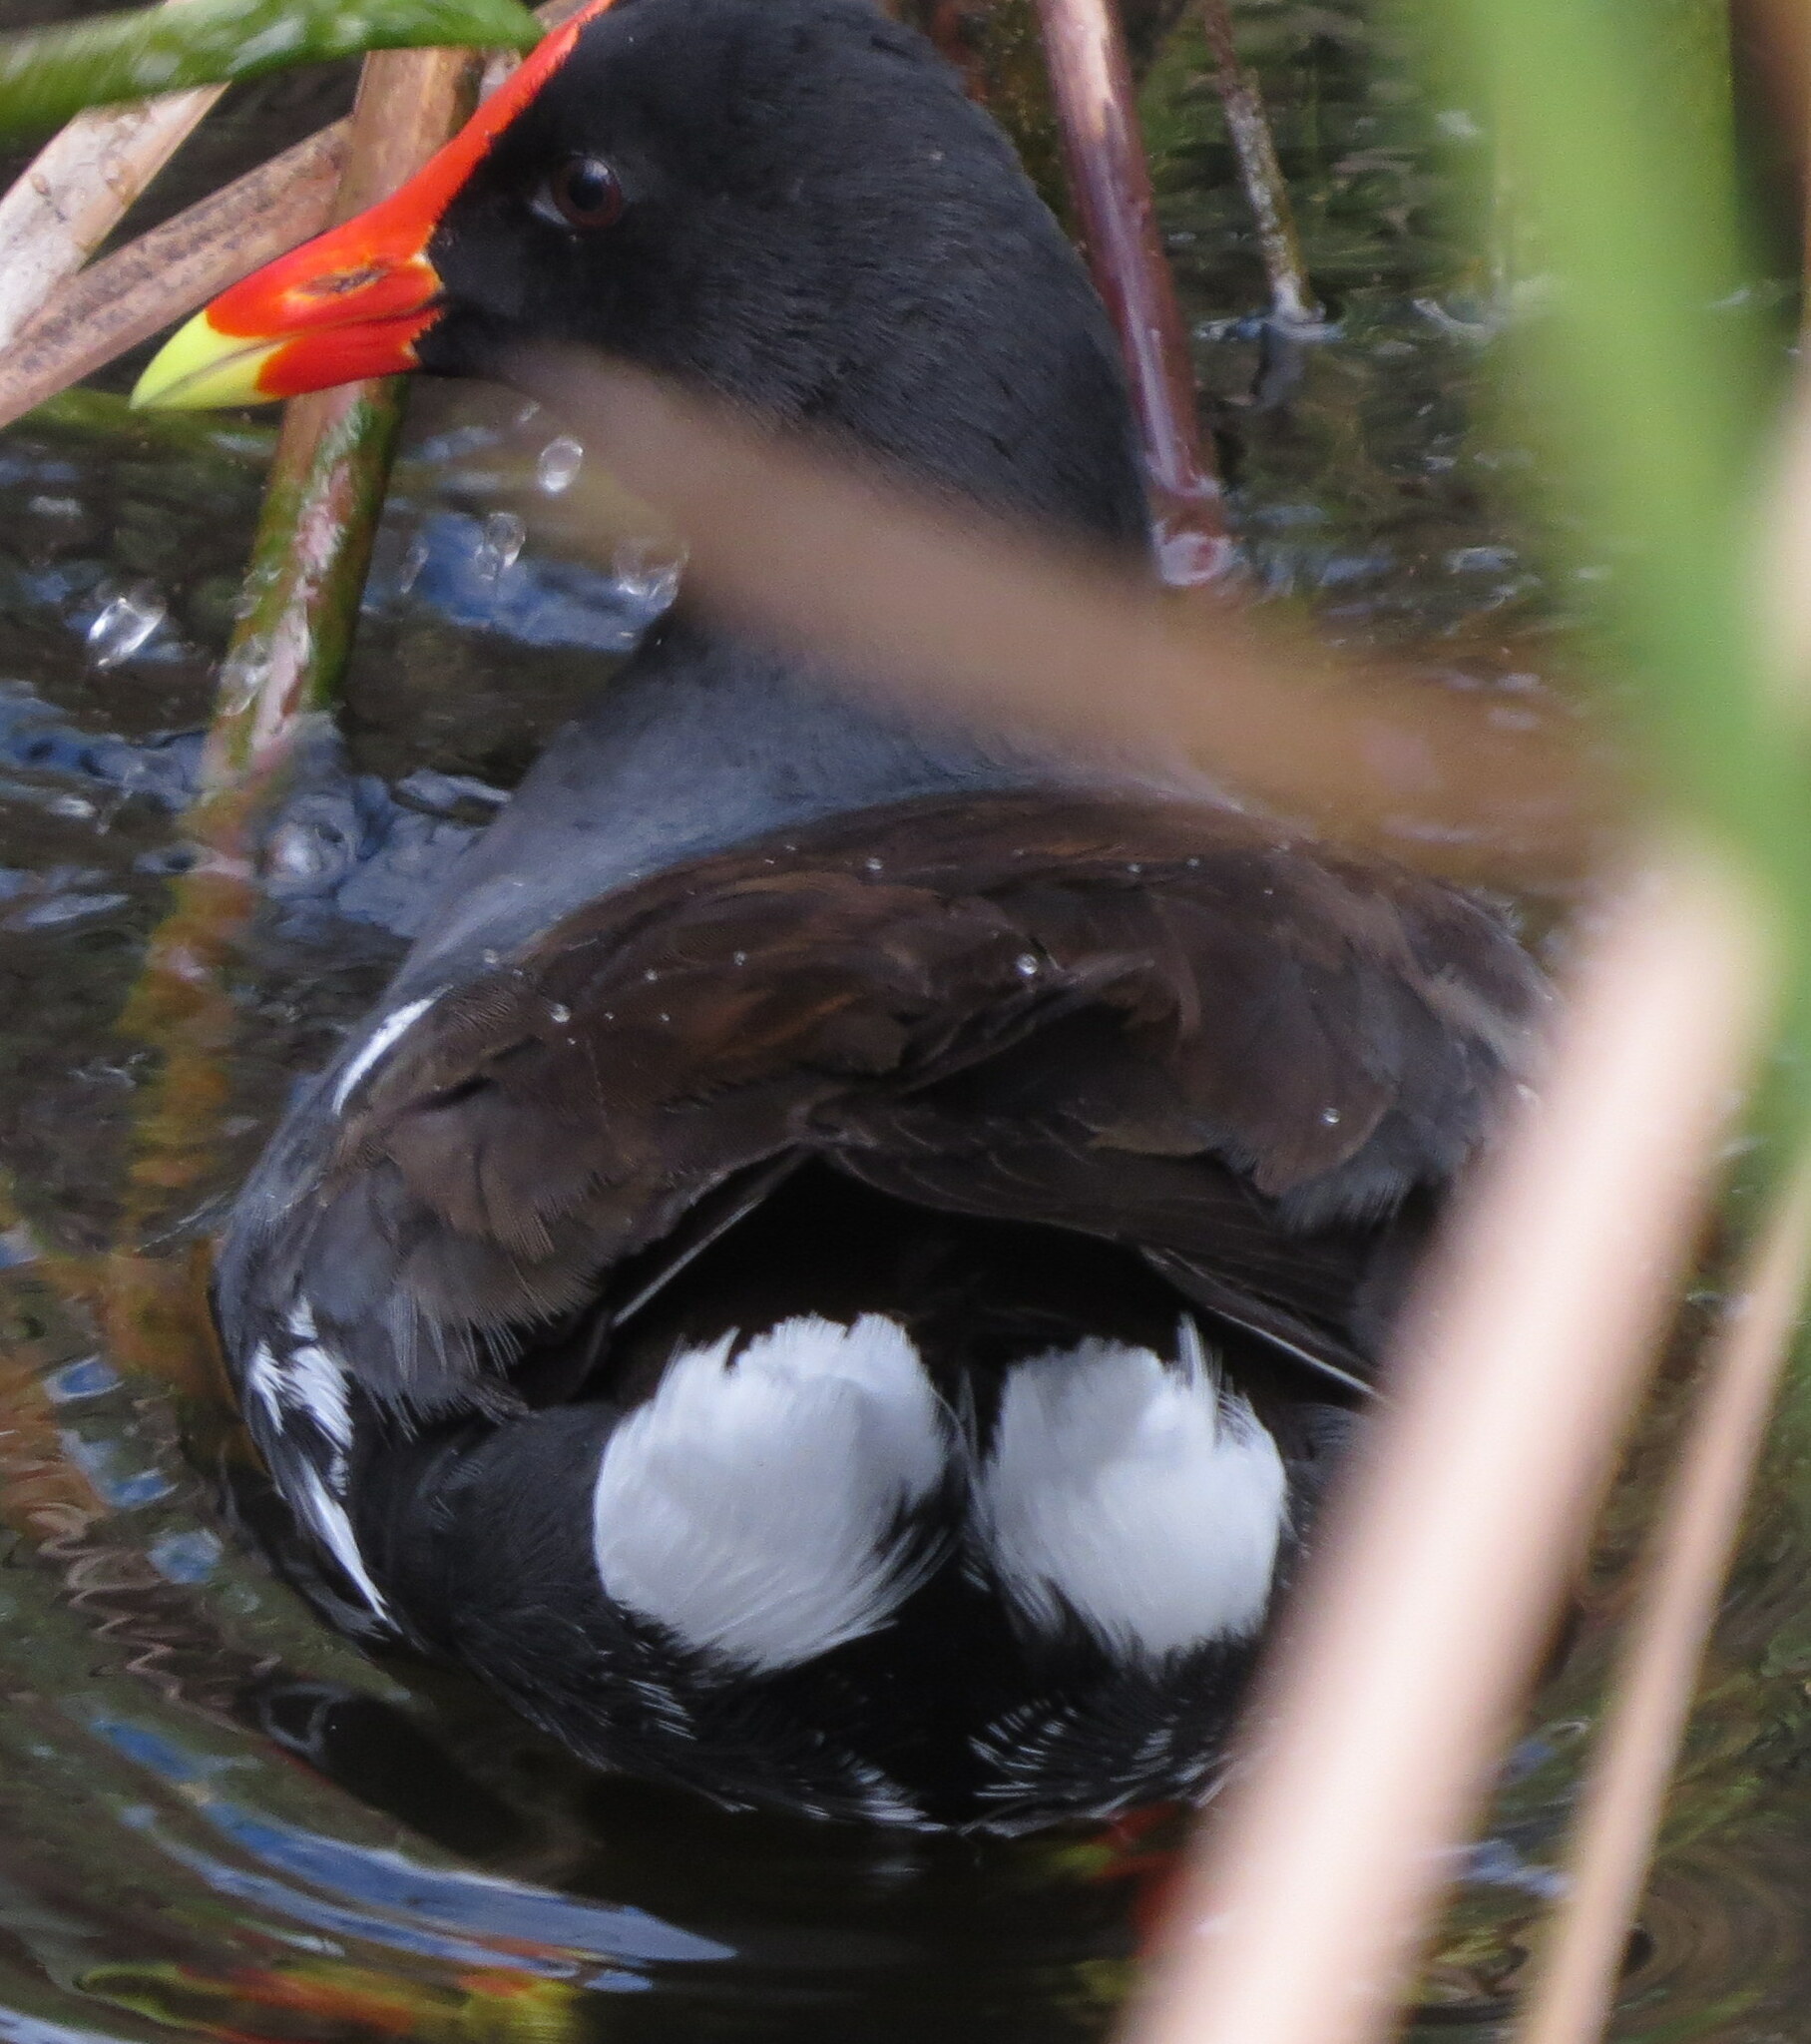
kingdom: Animalia
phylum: Chordata
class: Aves
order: Gruiformes
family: Rallidae
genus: Gallinula
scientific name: Gallinula chloropus
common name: Common moorhen
